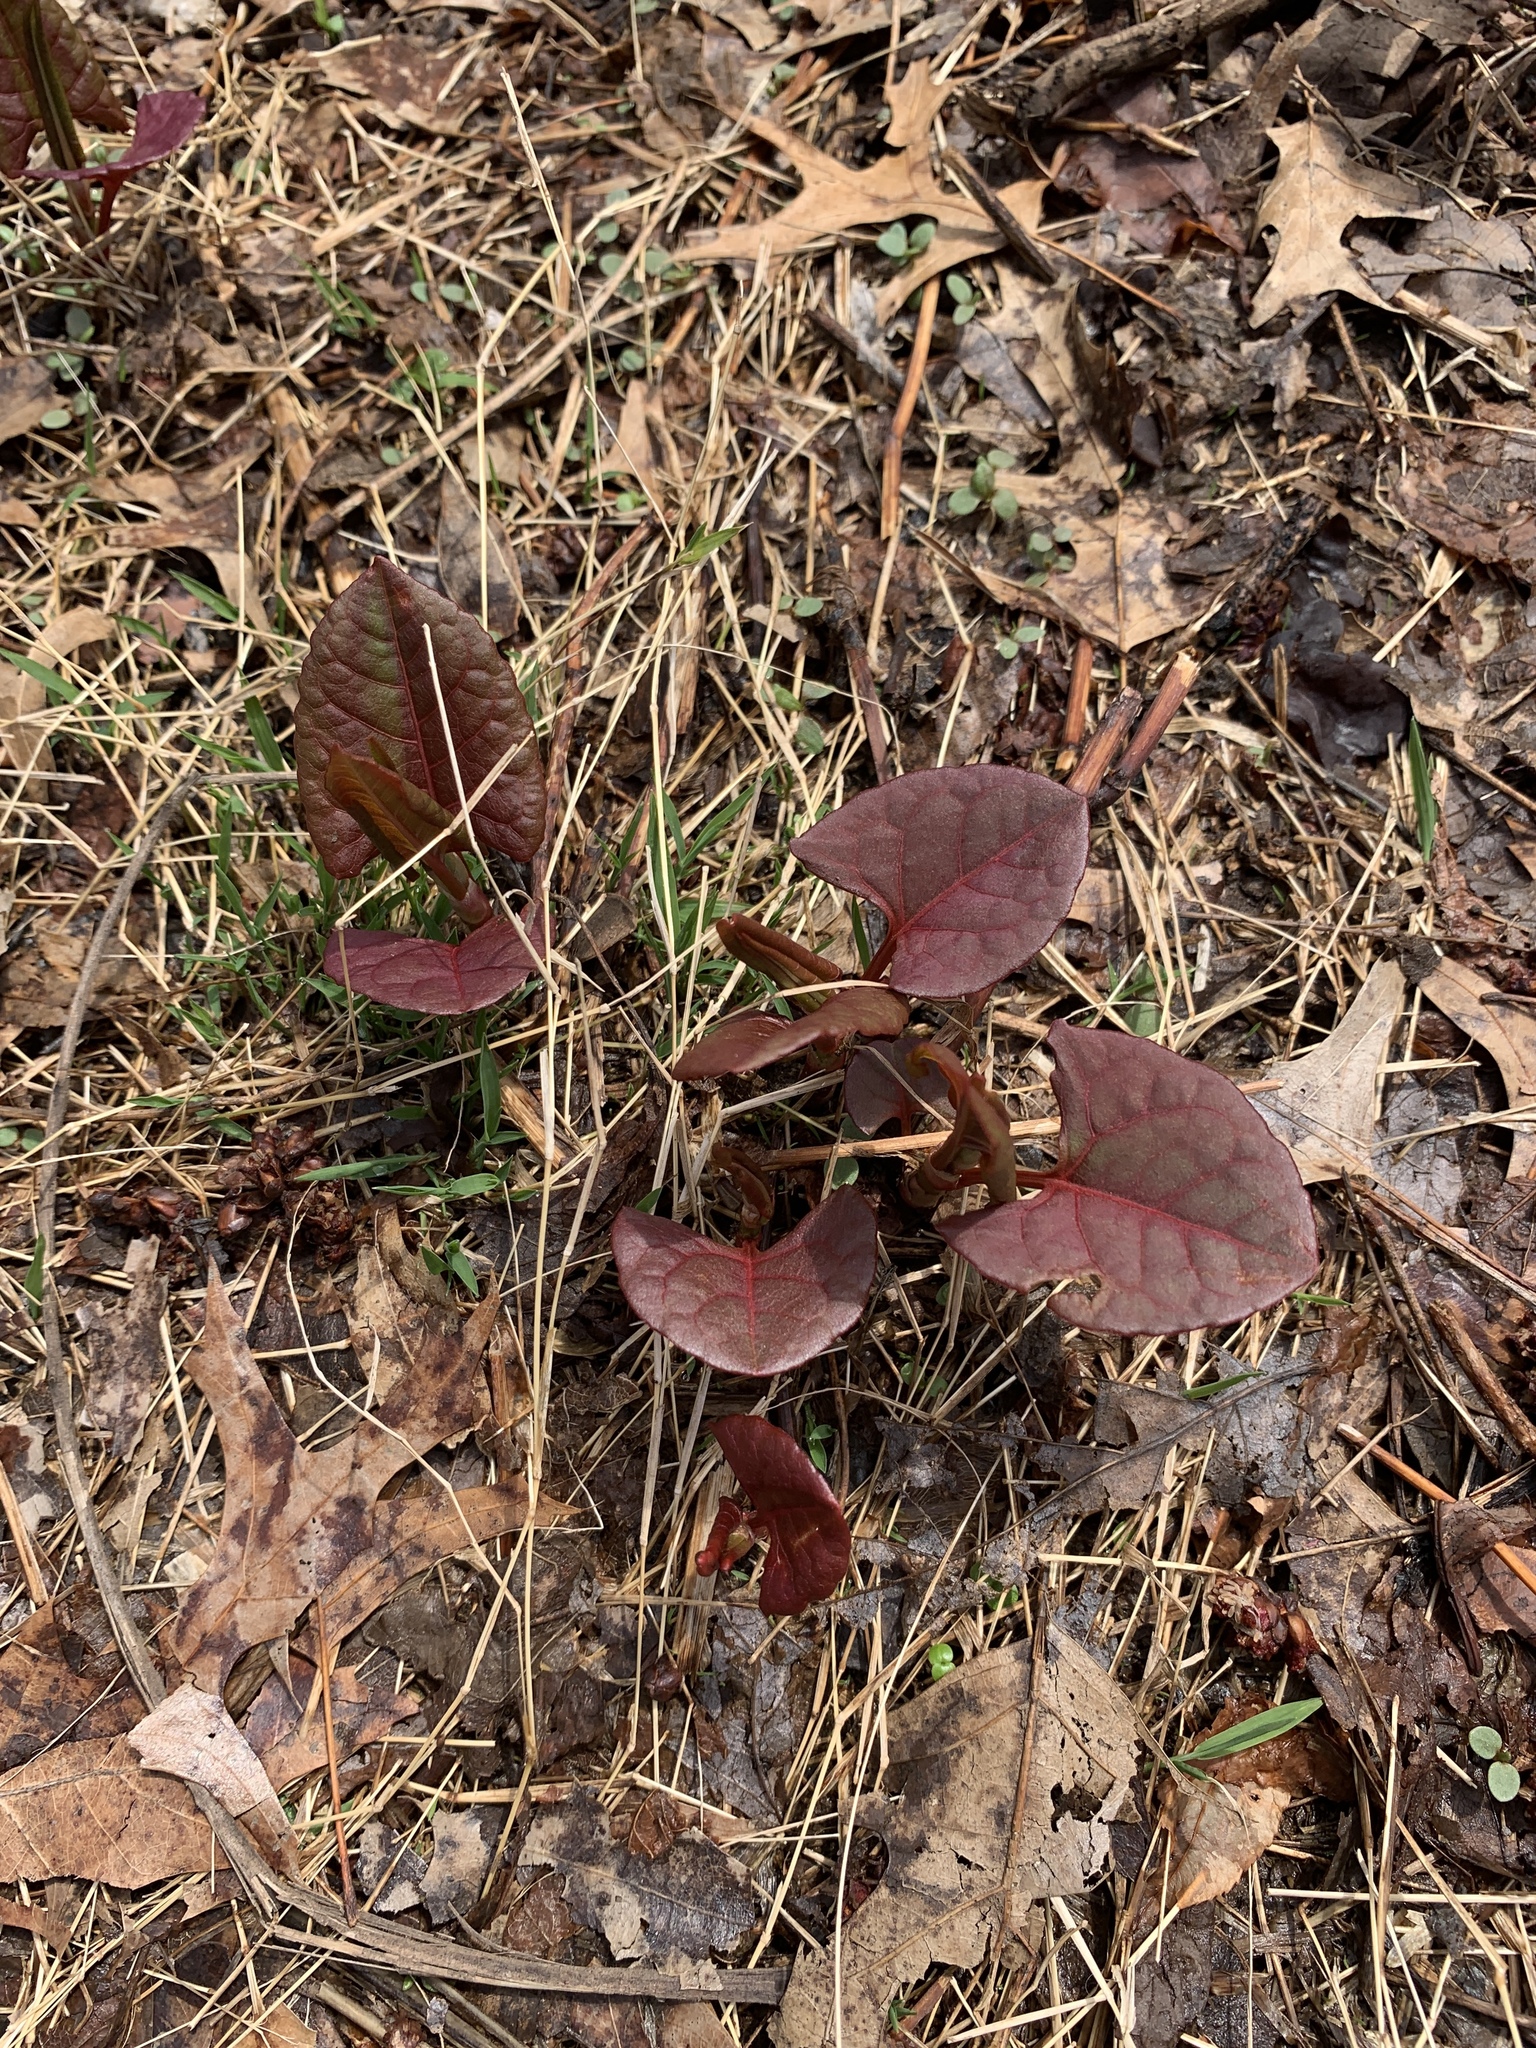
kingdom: Plantae
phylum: Tracheophyta
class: Magnoliopsida
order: Caryophyllales
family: Polygonaceae
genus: Reynoutria
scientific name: Reynoutria japonica
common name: Japanese knotweed
